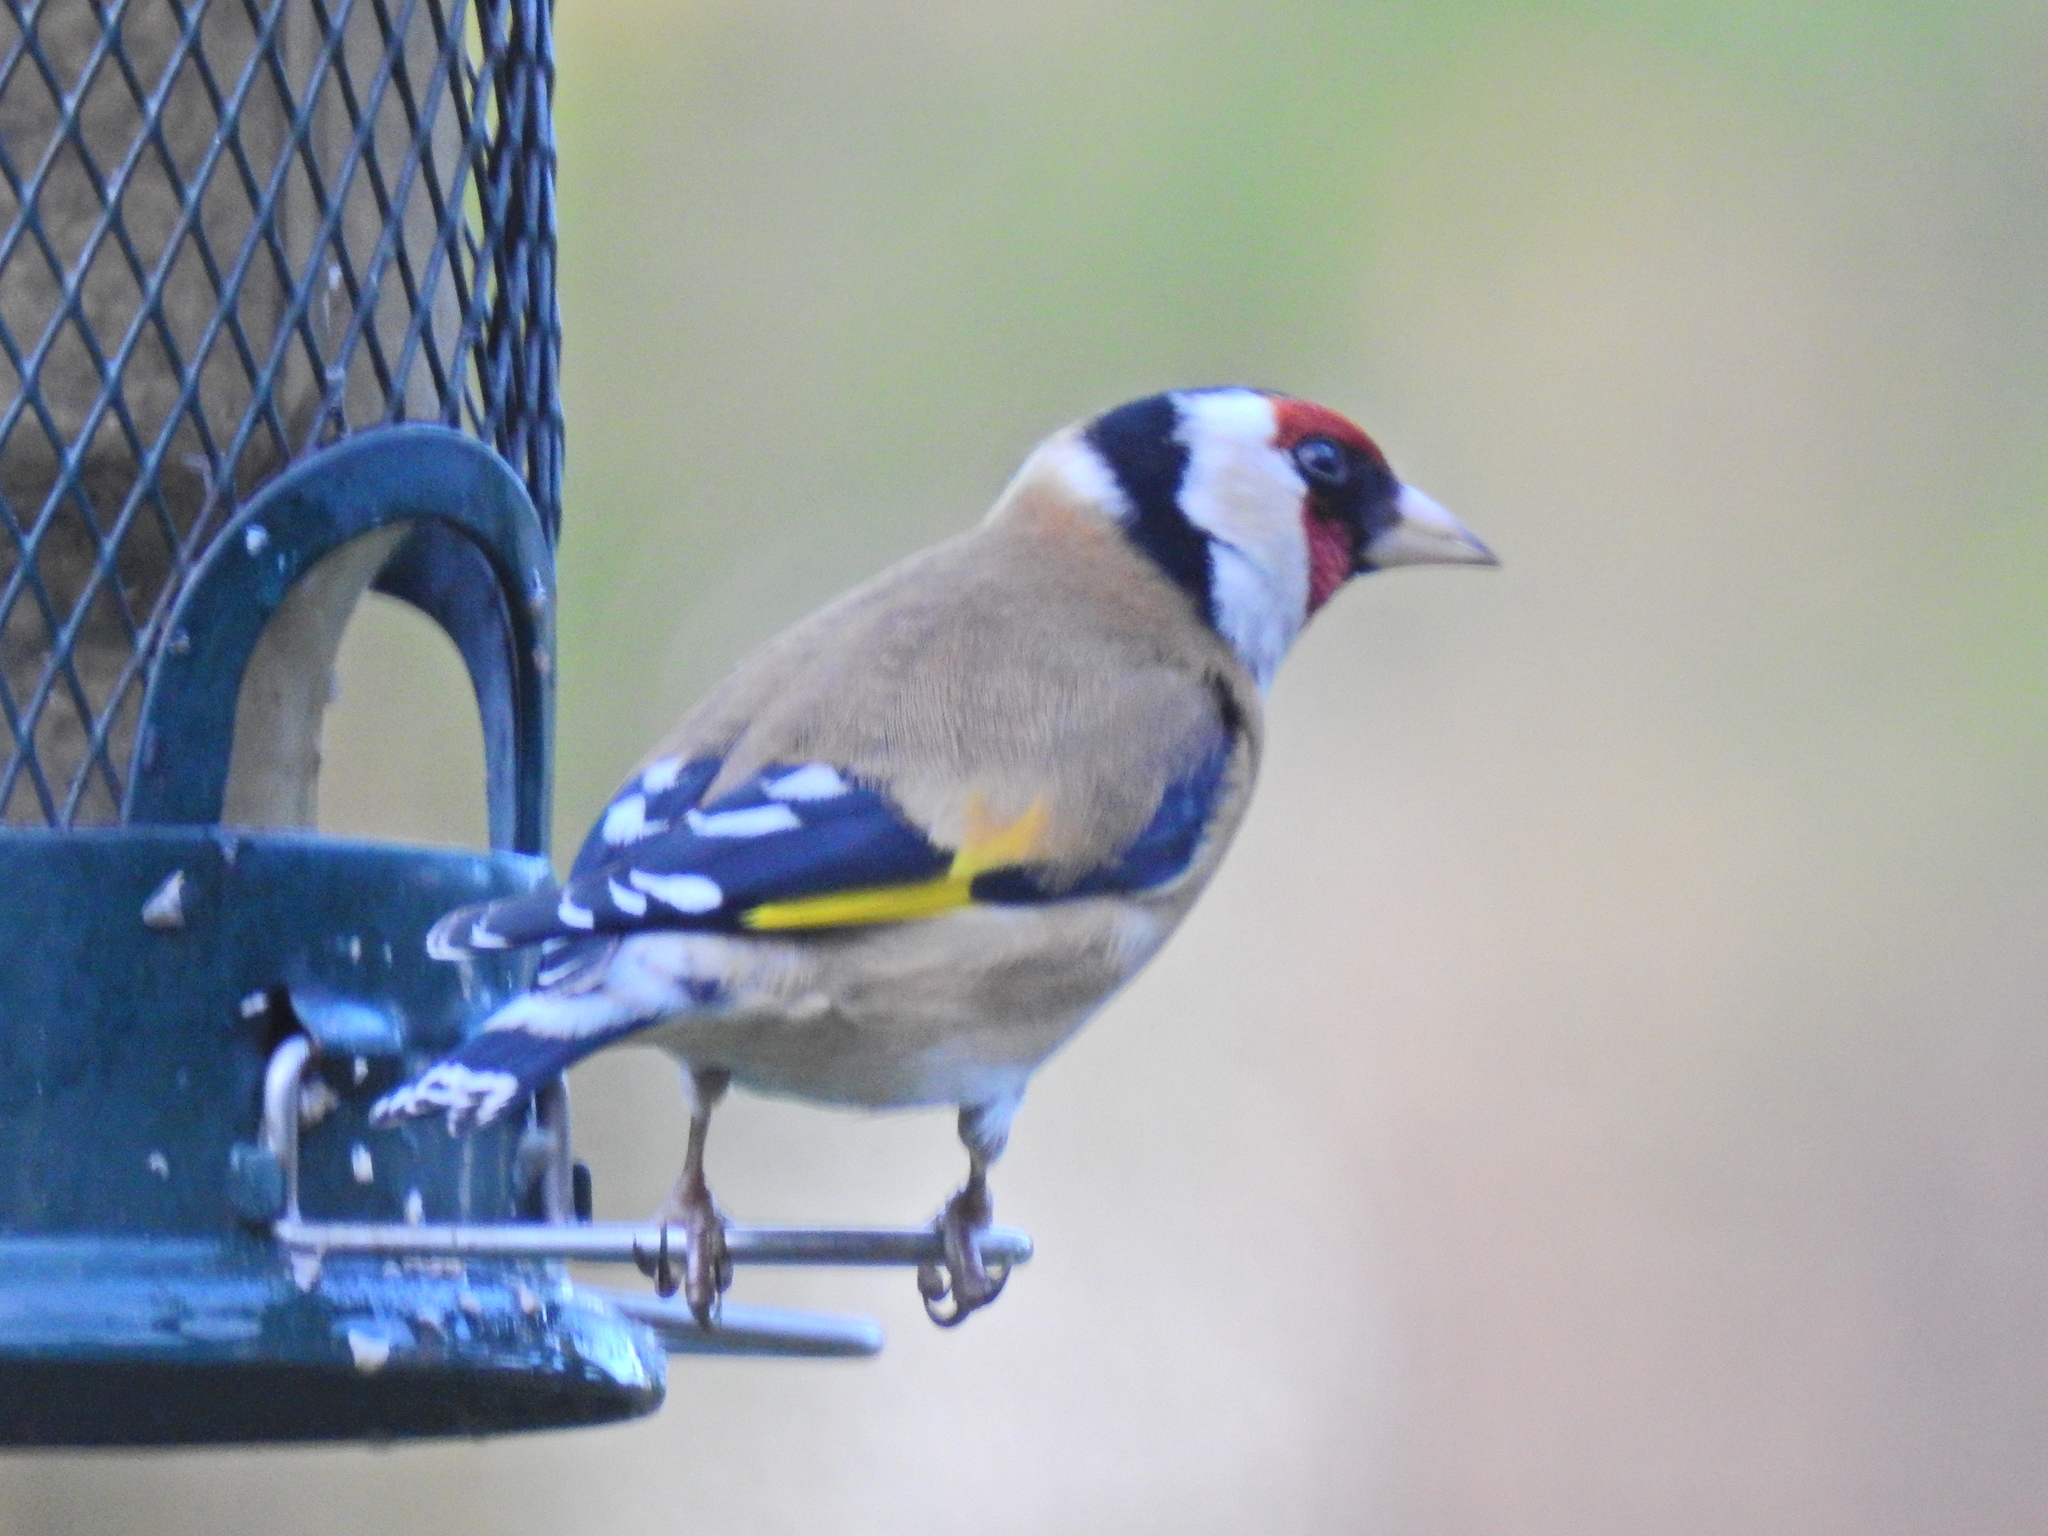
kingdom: Animalia
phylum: Chordata
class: Aves
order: Passeriformes
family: Fringillidae
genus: Carduelis
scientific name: Carduelis carduelis
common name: European goldfinch
